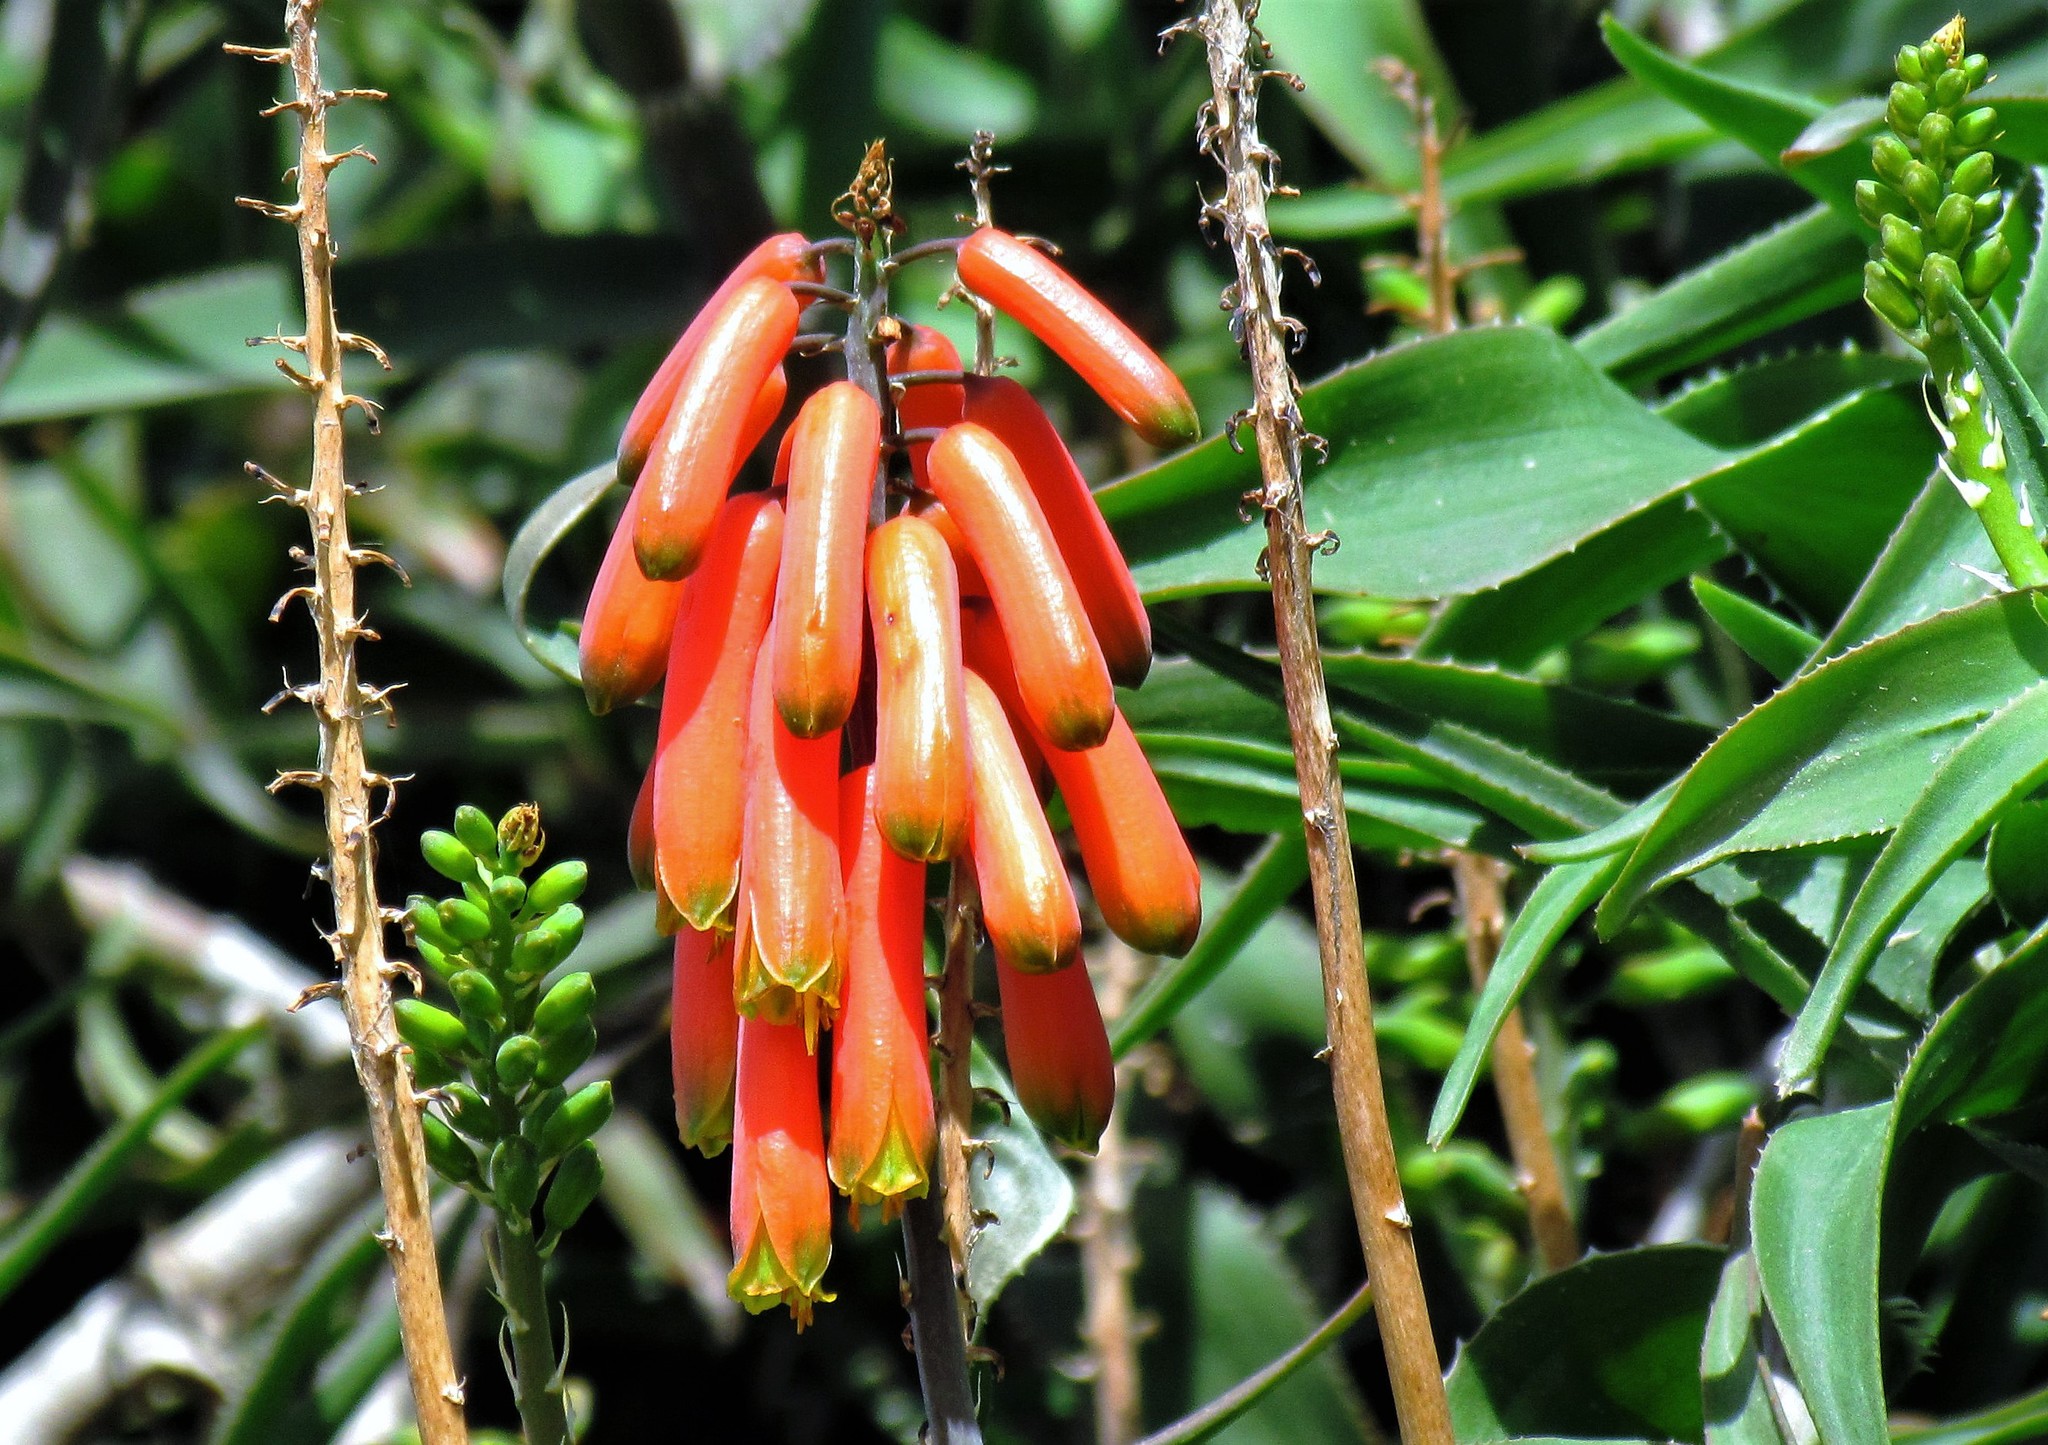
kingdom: Plantae
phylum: Tracheophyta
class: Liliopsida
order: Asparagales
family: Asphodelaceae
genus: Aloiampelos
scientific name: Aloiampelos ciliaris
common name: Climbing aloe
